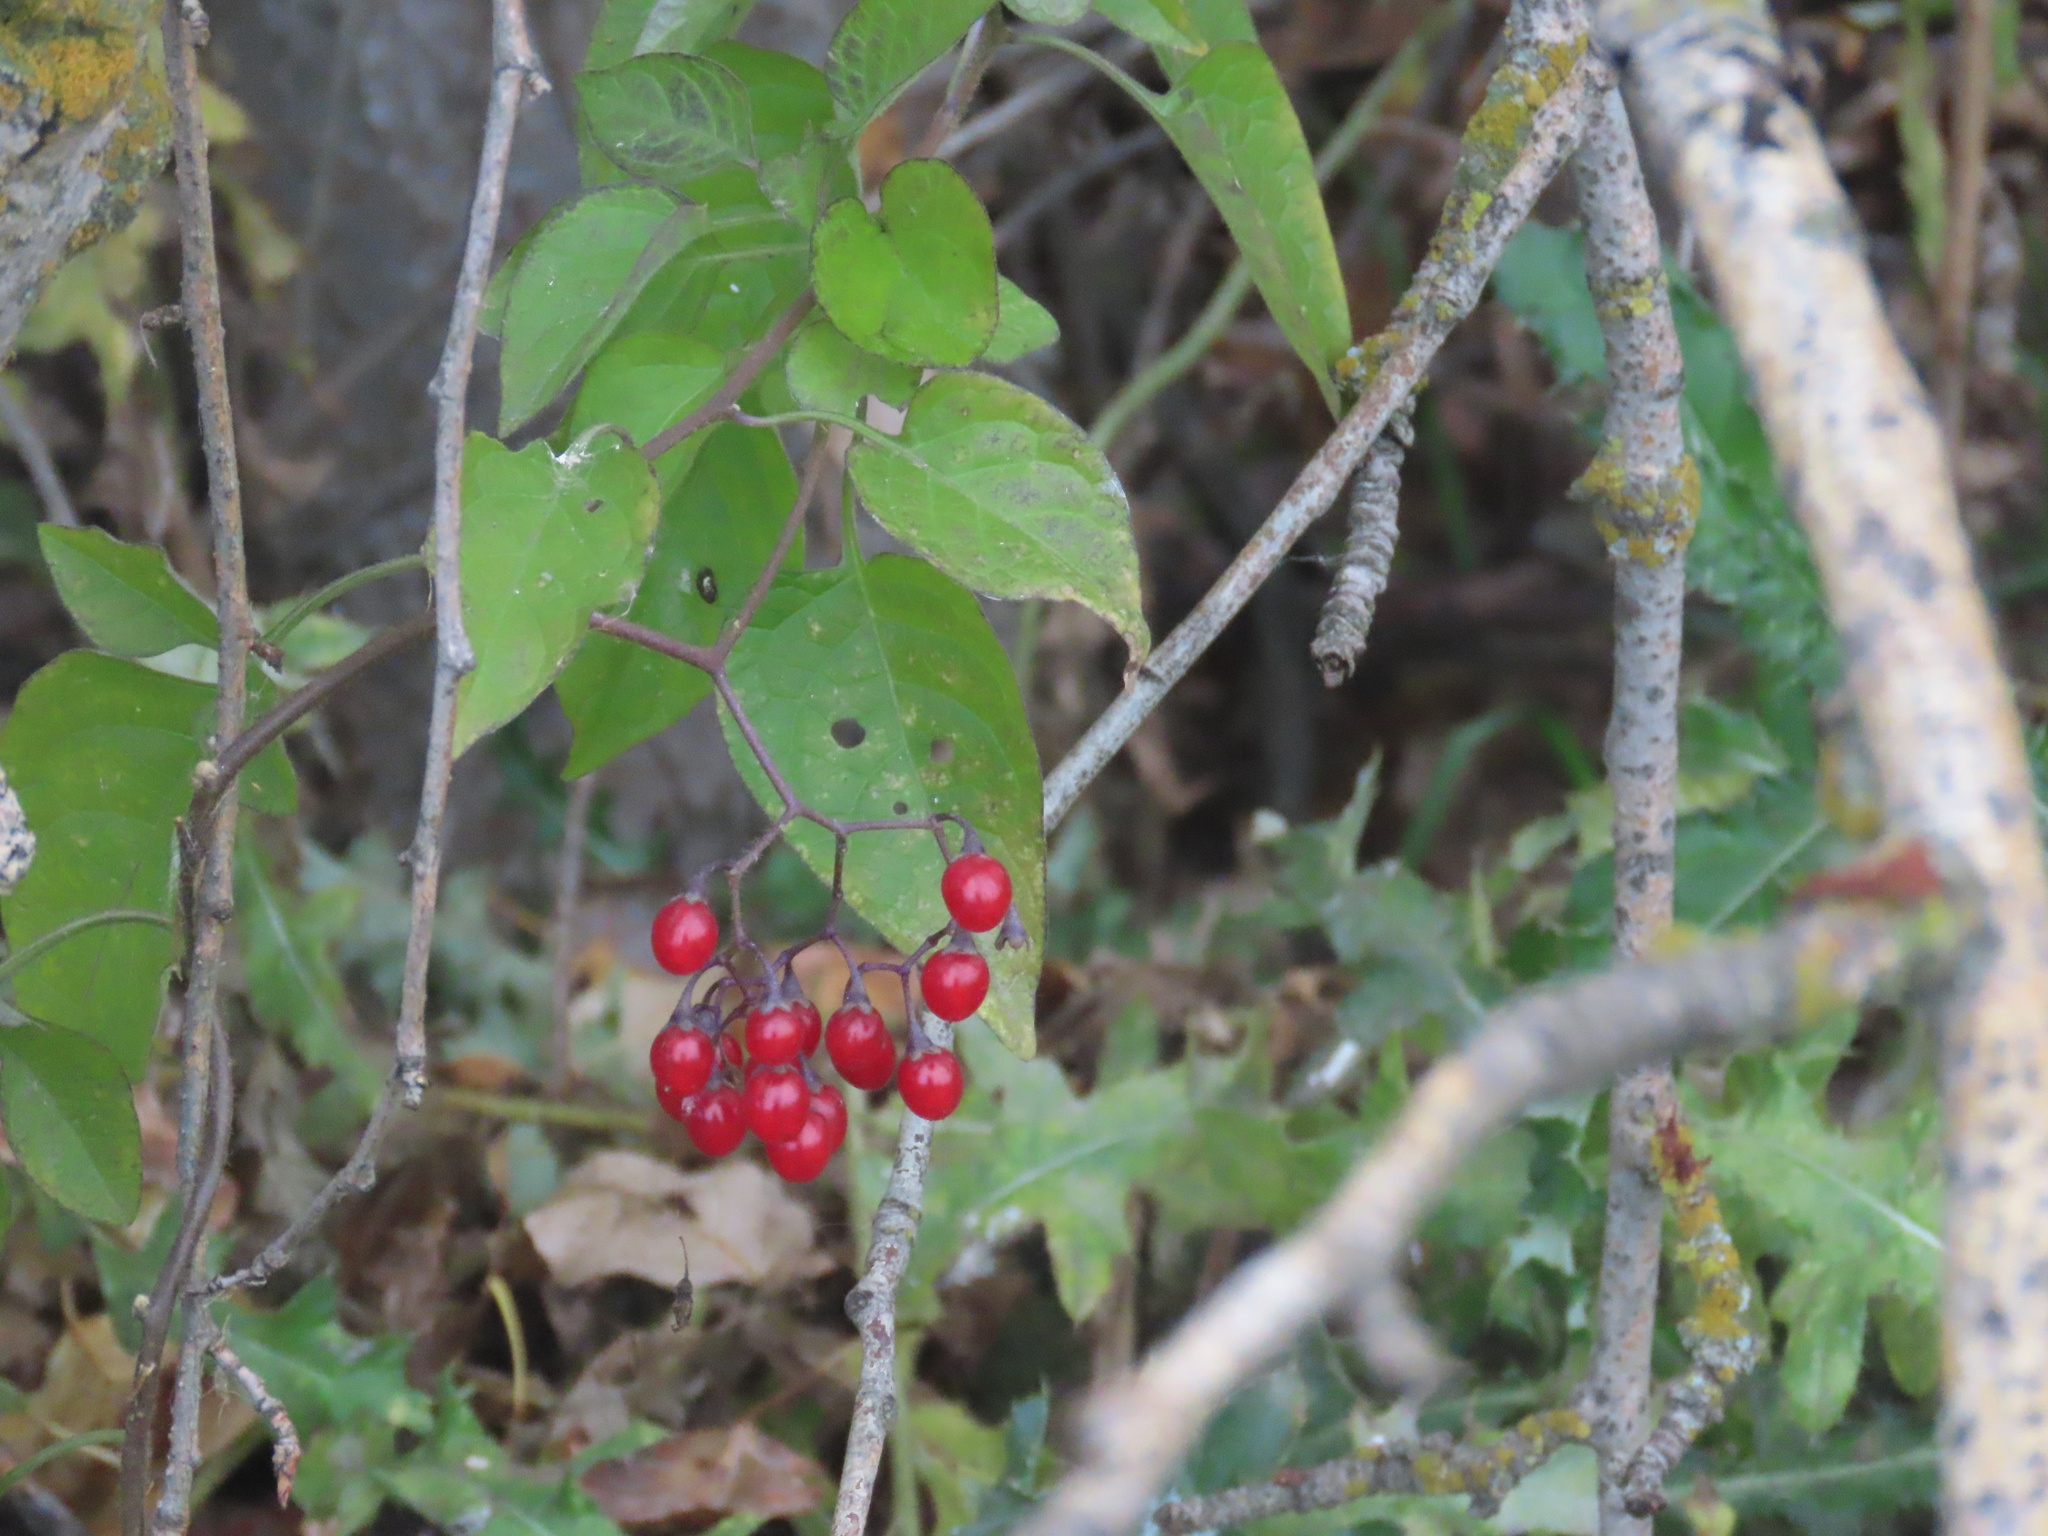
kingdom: Plantae
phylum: Tracheophyta
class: Magnoliopsida
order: Solanales
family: Solanaceae
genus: Solanum
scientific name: Solanum dulcamara
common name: Climbing nightshade
